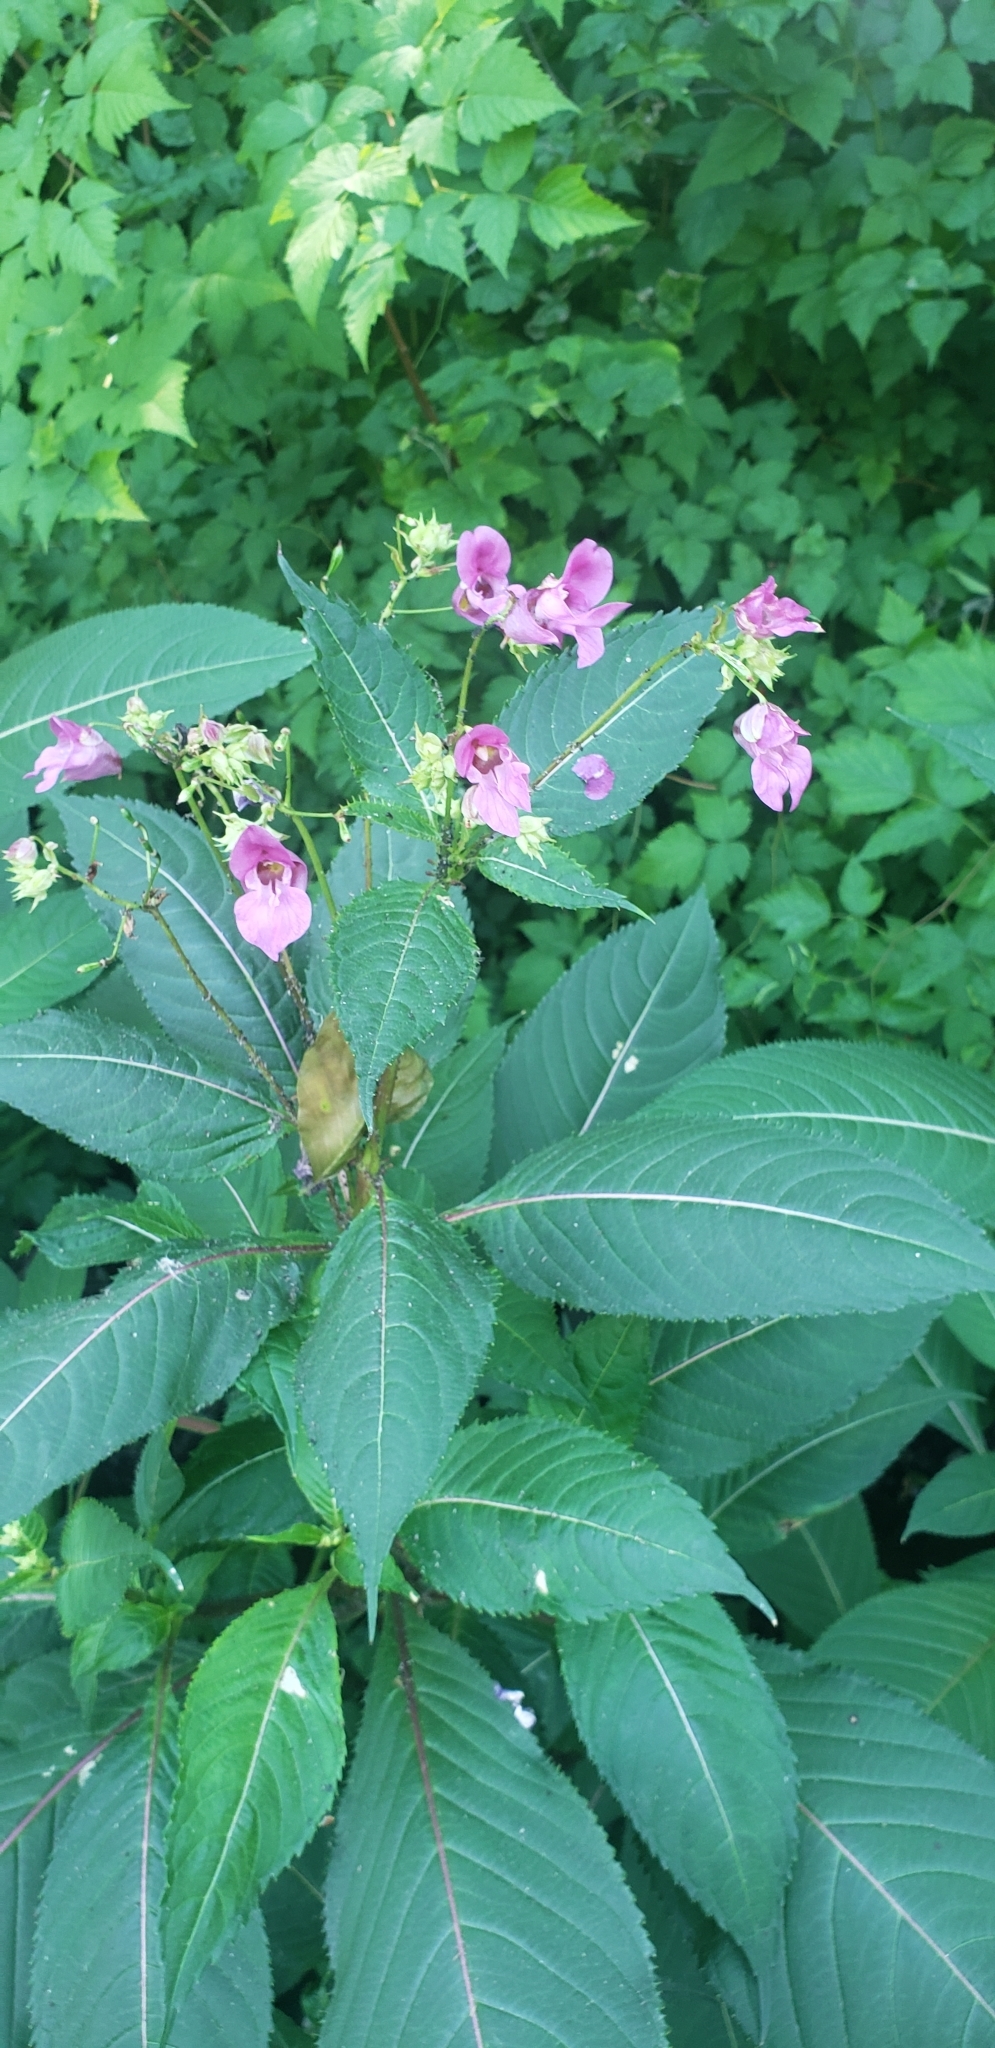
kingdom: Plantae
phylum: Tracheophyta
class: Magnoliopsida
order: Ericales
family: Balsaminaceae
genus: Impatiens
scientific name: Impatiens glandulifera
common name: Himalayan balsam
